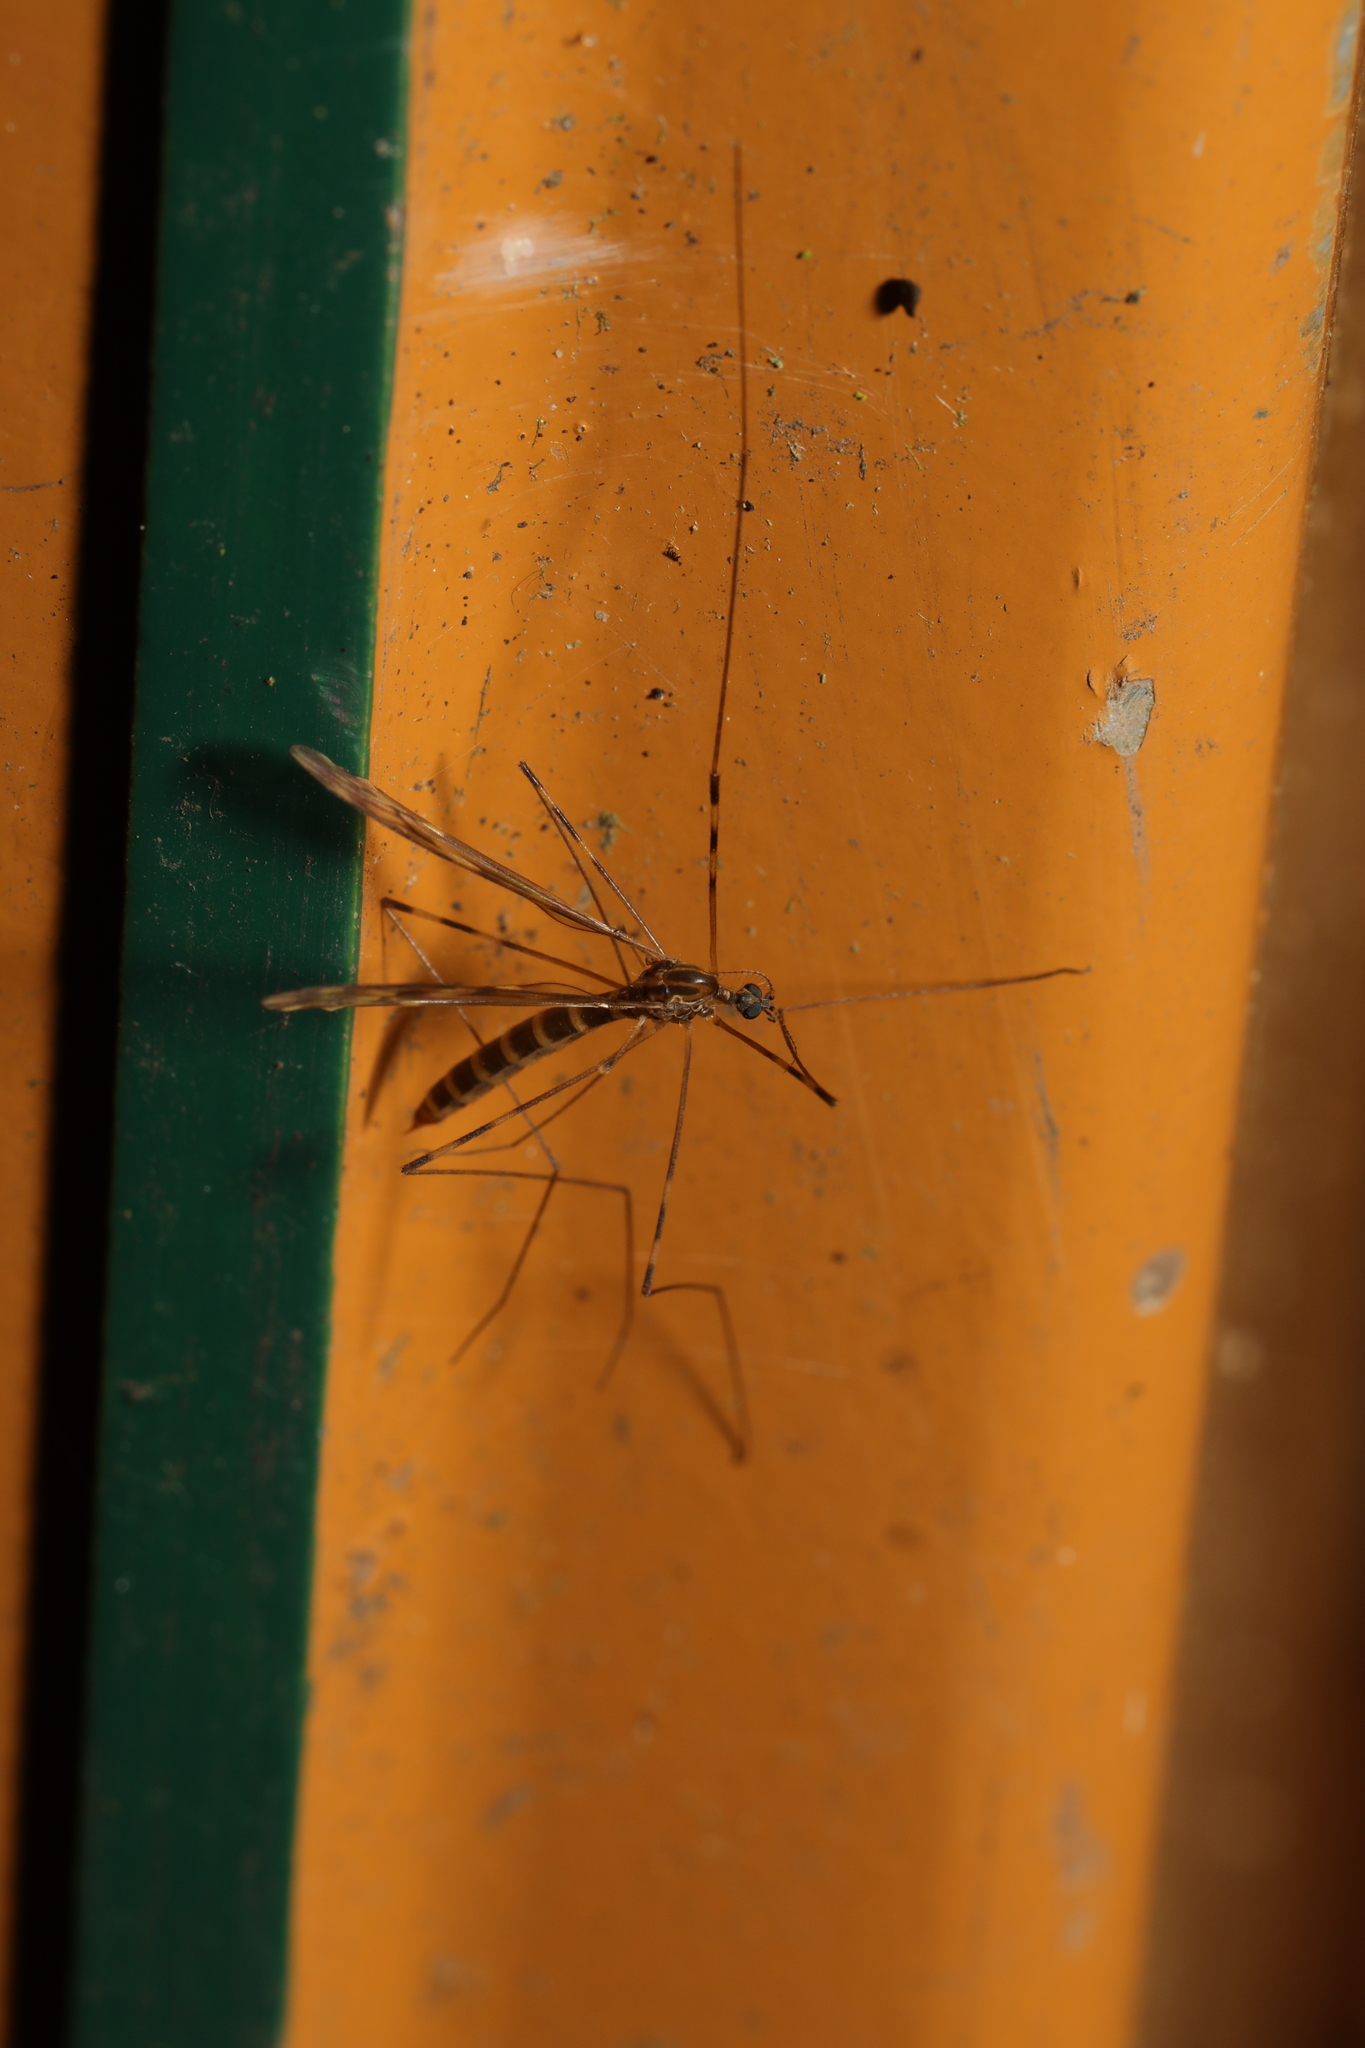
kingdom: Animalia
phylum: Arthropoda
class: Insecta
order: Diptera
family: Limoniidae
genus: Limonia
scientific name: Limonia nubeculosa
